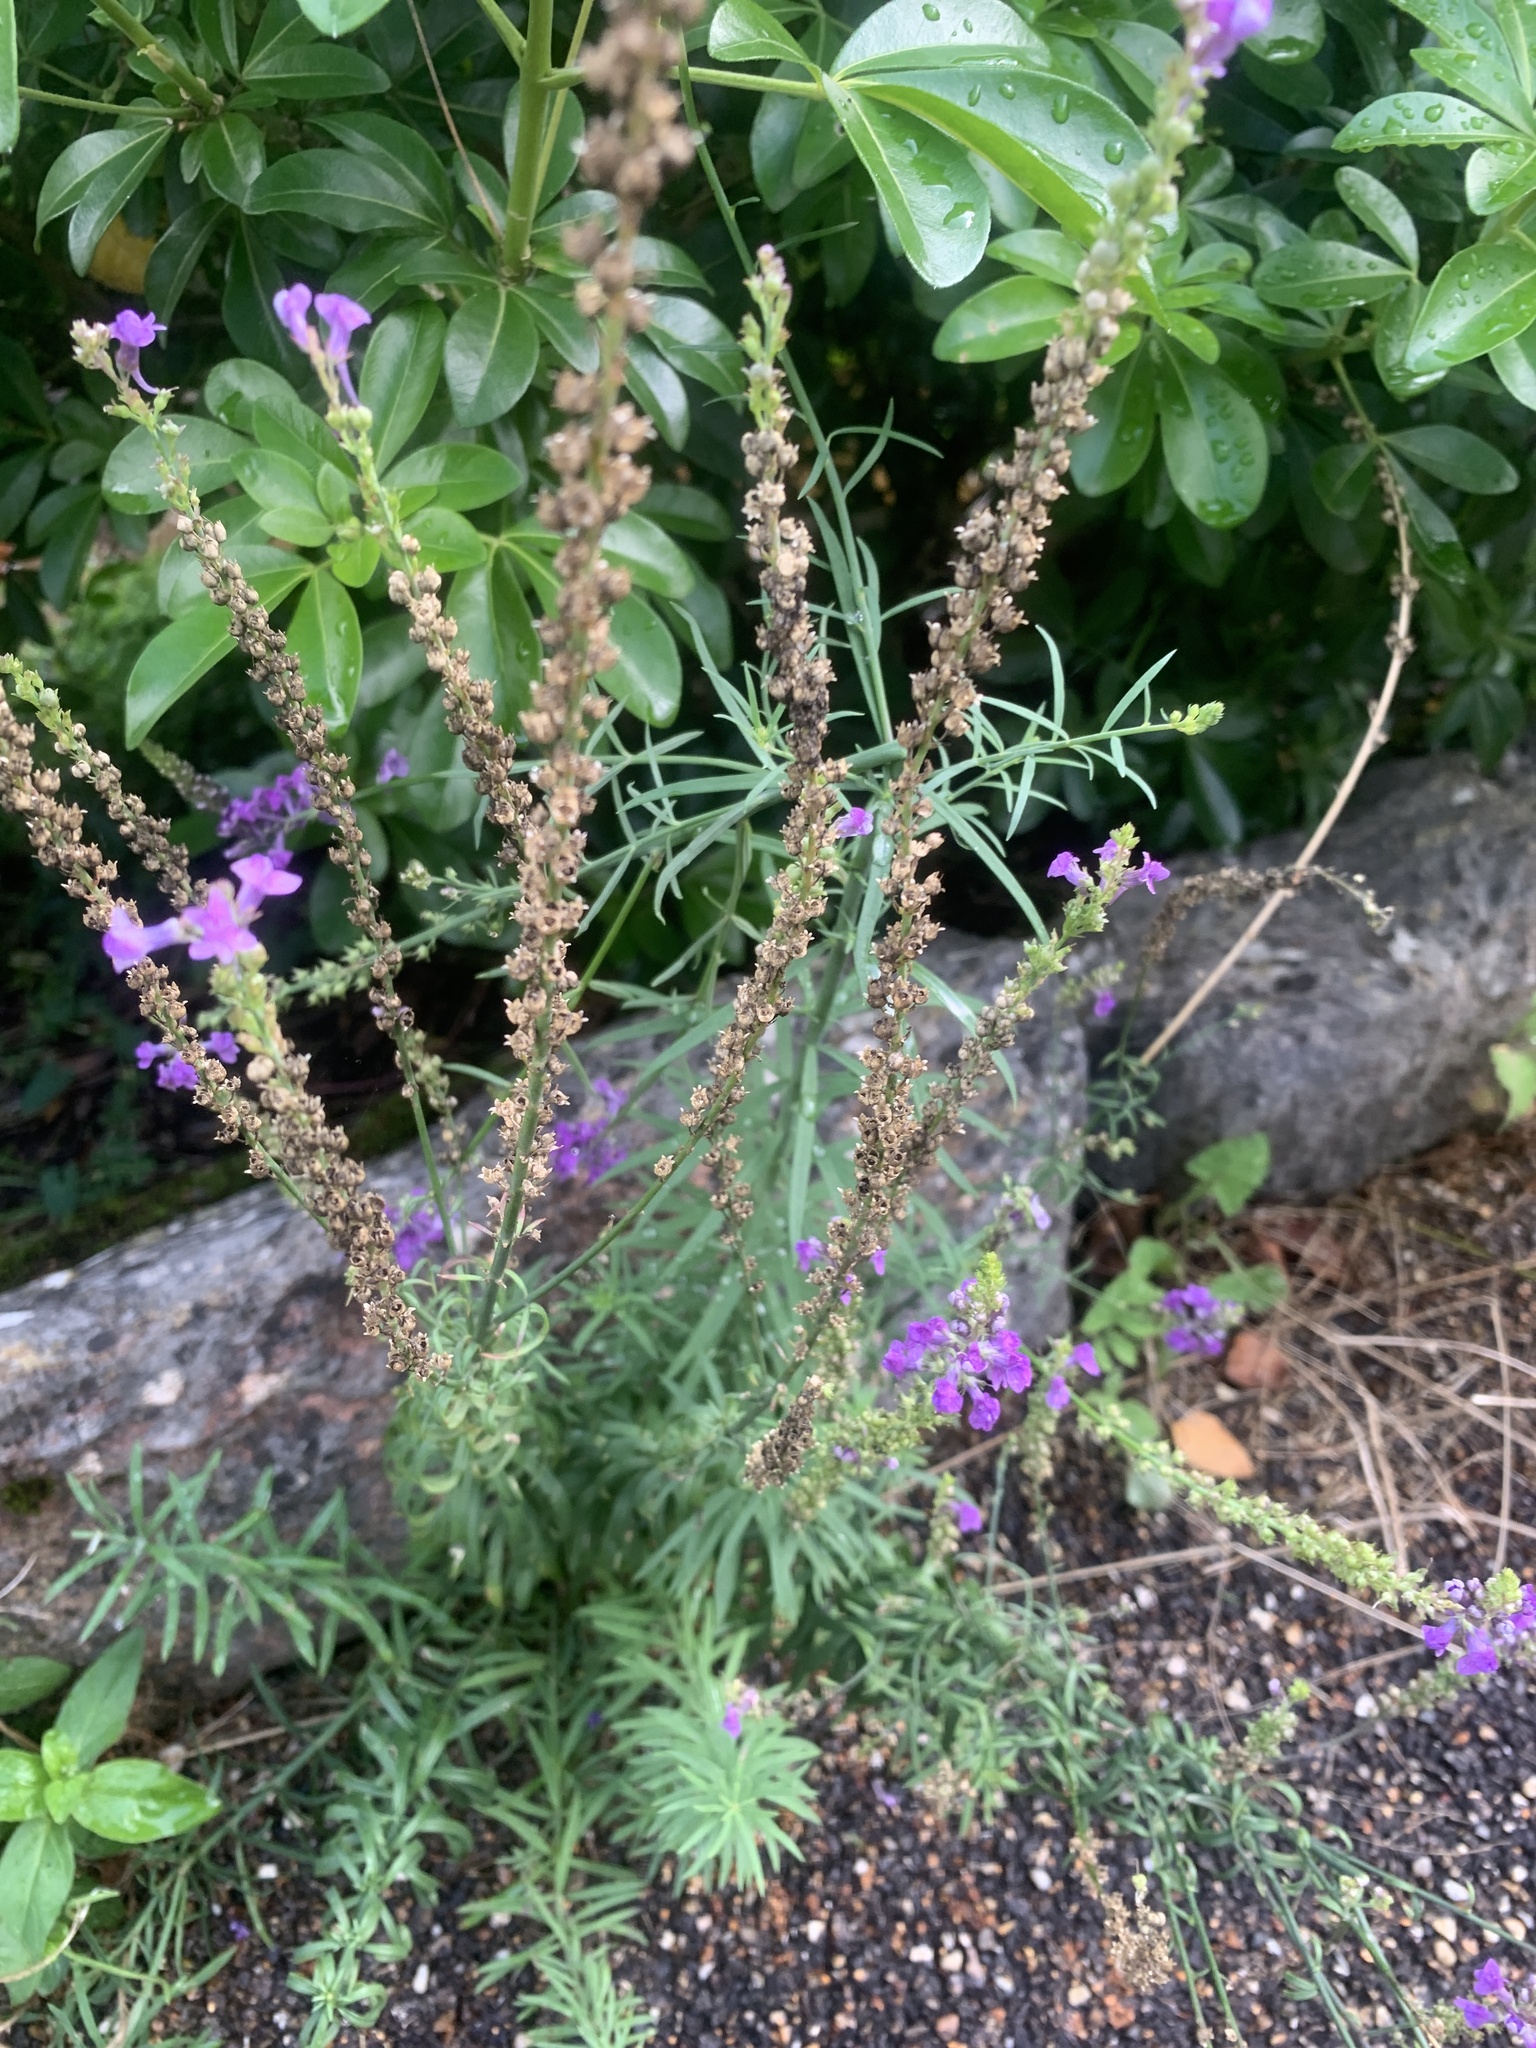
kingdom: Plantae
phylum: Tracheophyta
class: Magnoliopsida
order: Lamiales
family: Plantaginaceae
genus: Linaria
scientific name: Linaria purpurea
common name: Purple toadflax
